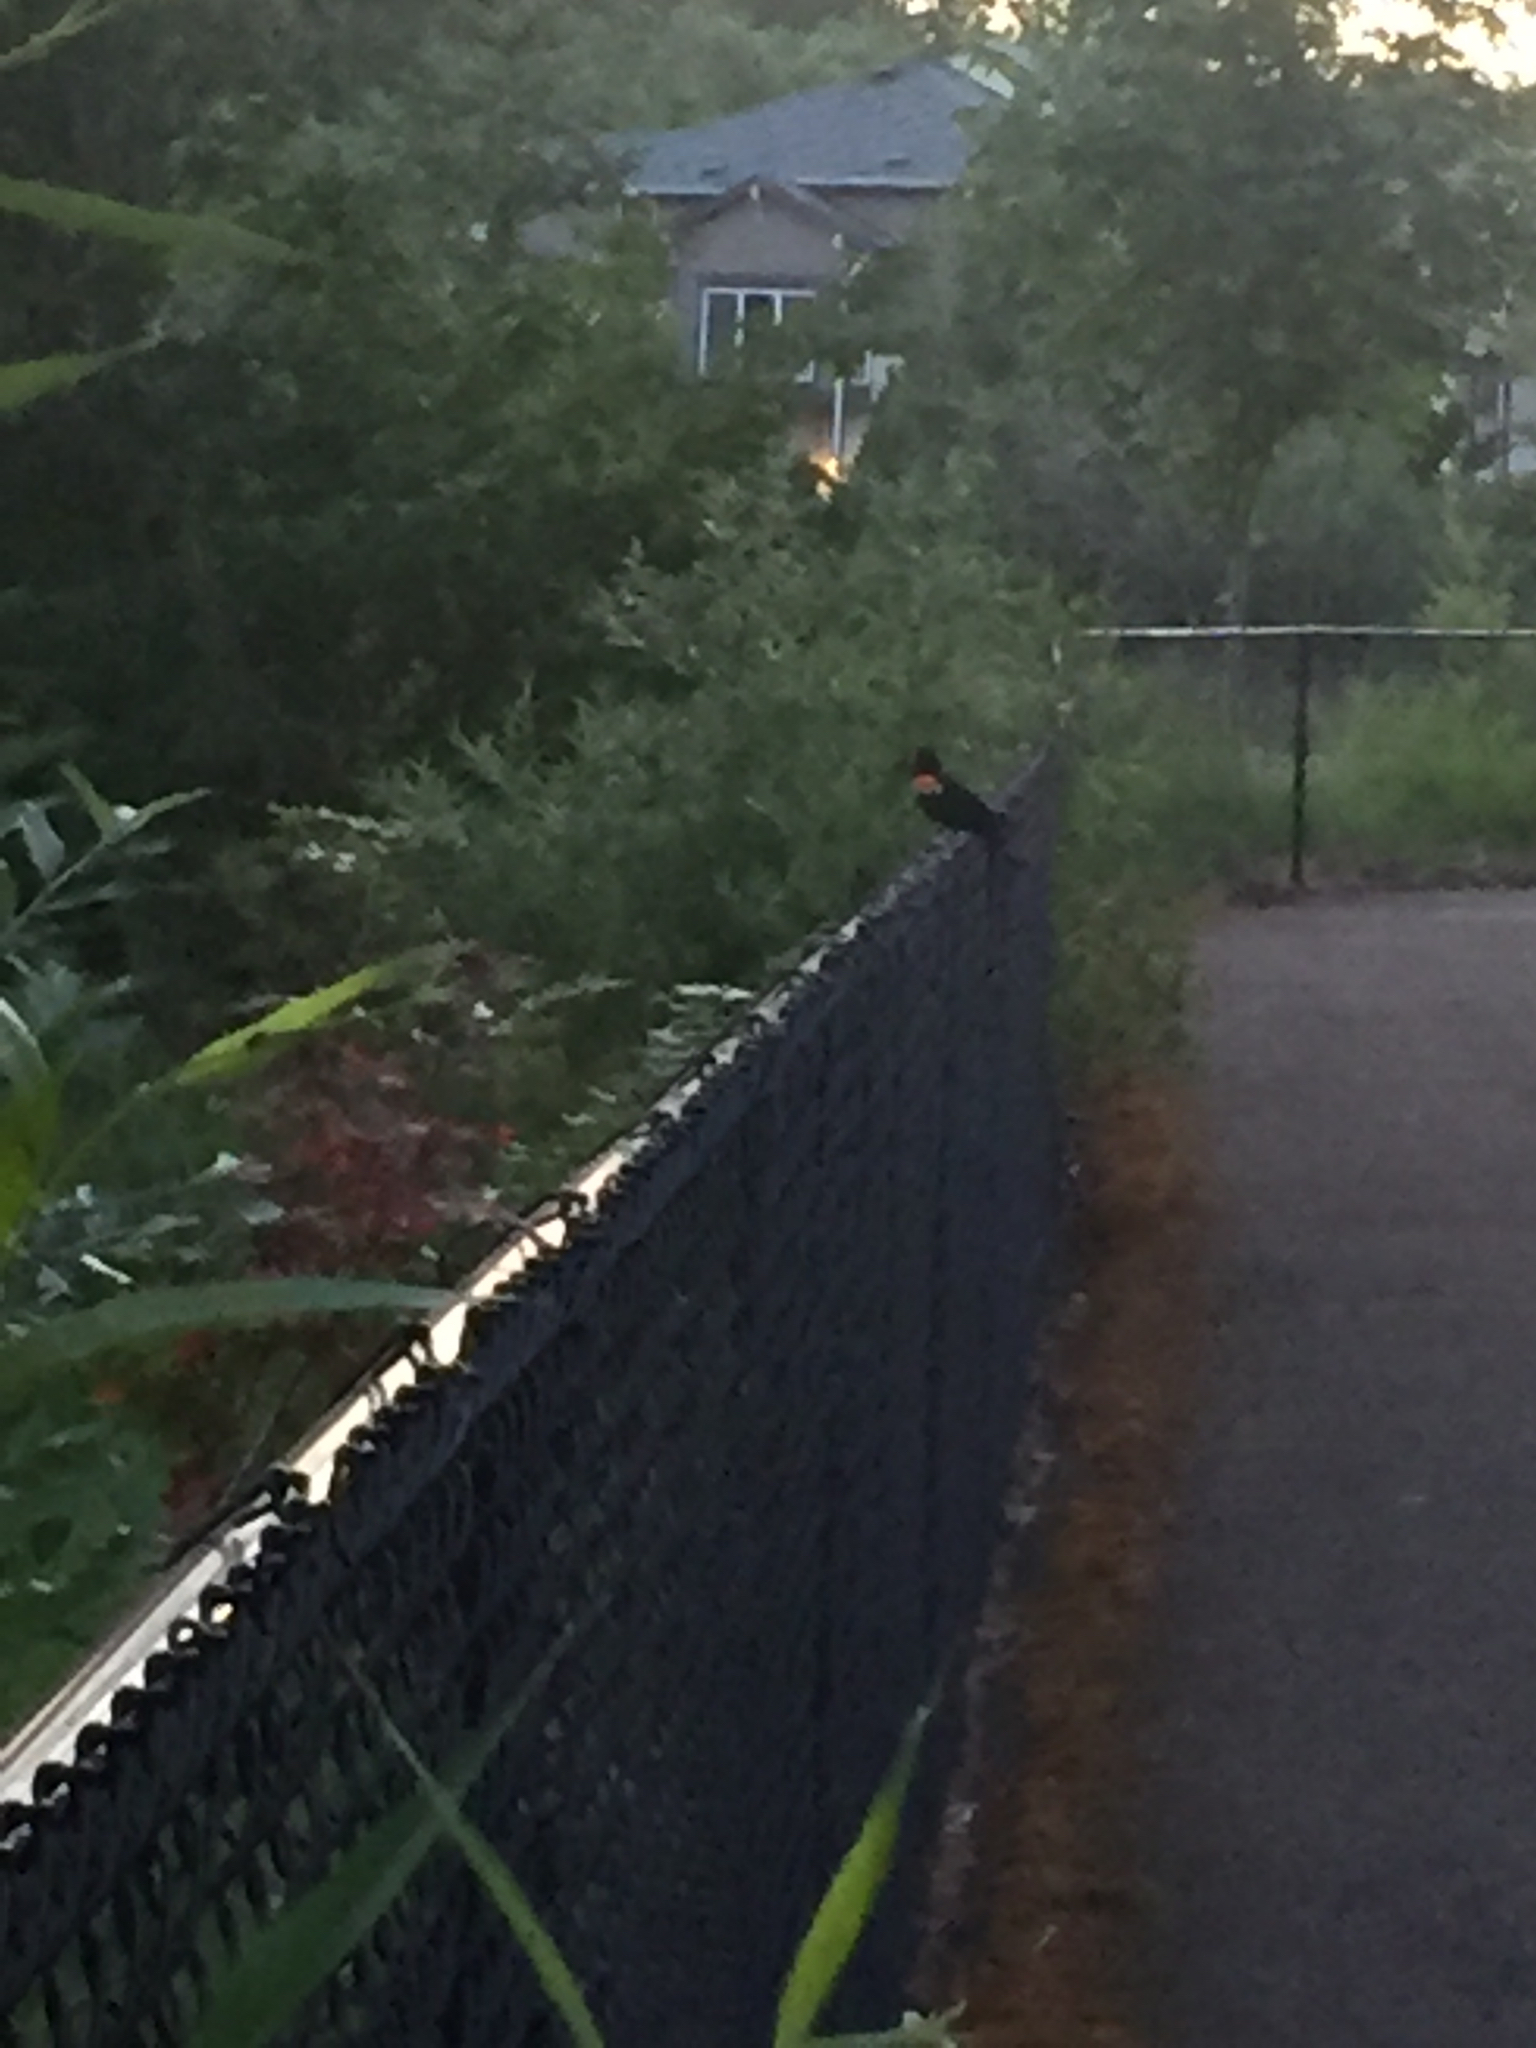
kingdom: Animalia
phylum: Chordata
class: Aves
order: Passeriformes
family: Icteridae
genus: Agelaius
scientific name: Agelaius phoeniceus
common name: Red-winged blackbird
